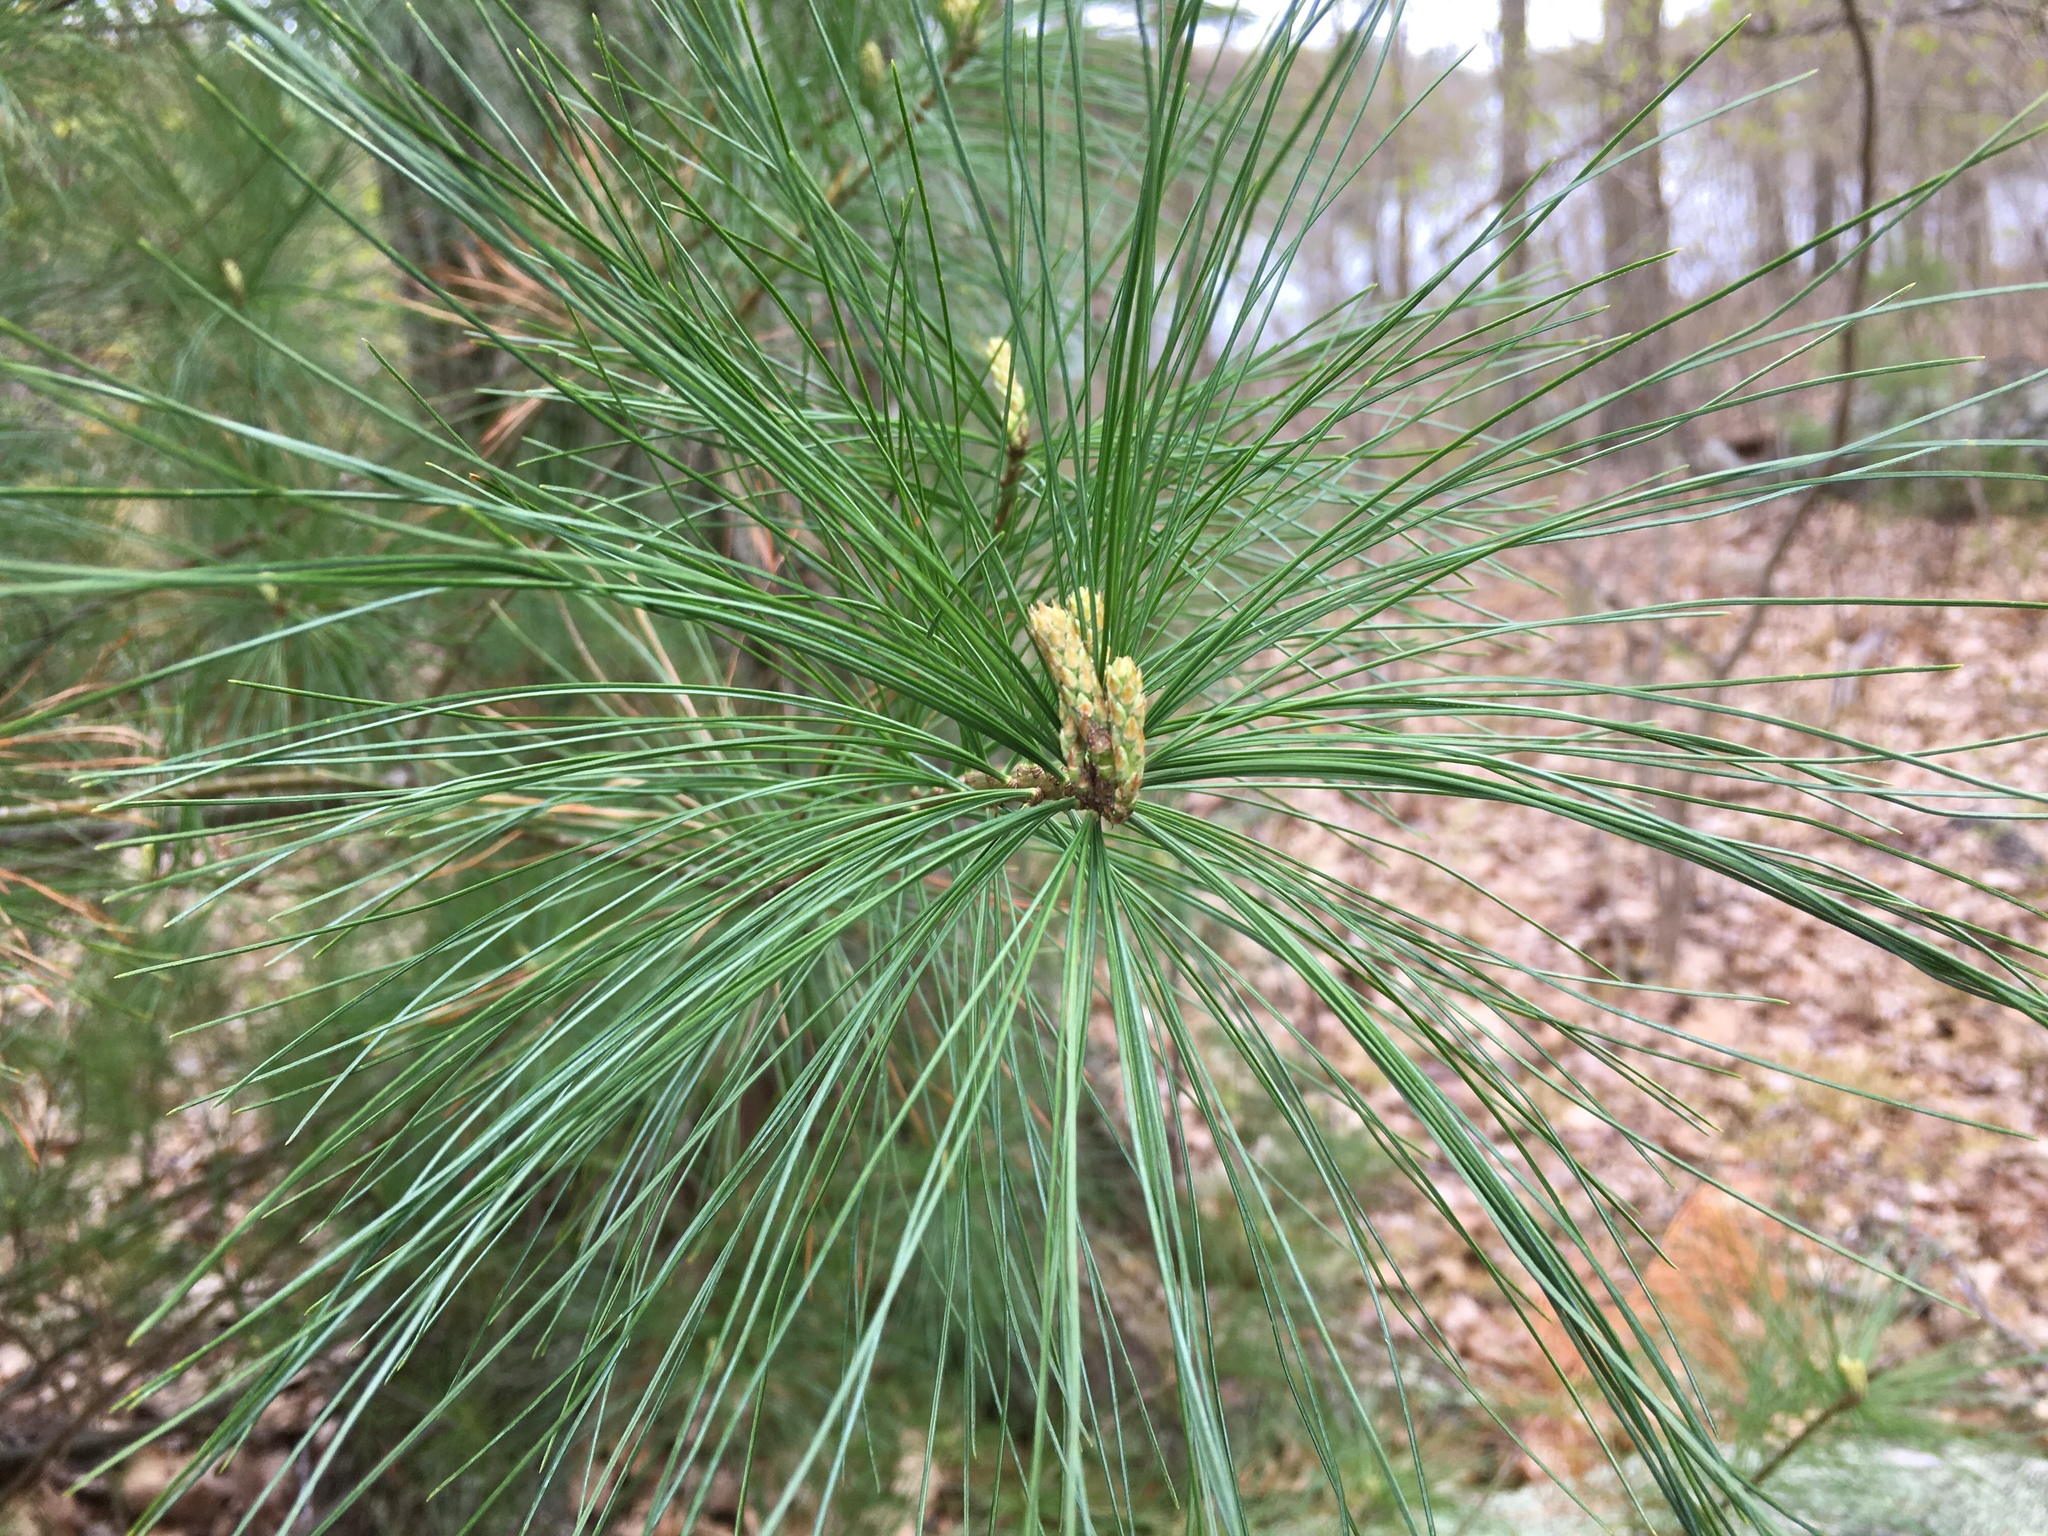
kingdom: Plantae
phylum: Tracheophyta
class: Pinopsida
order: Pinales
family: Pinaceae
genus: Pinus
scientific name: Pinus strobus
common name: Weymouth pine
